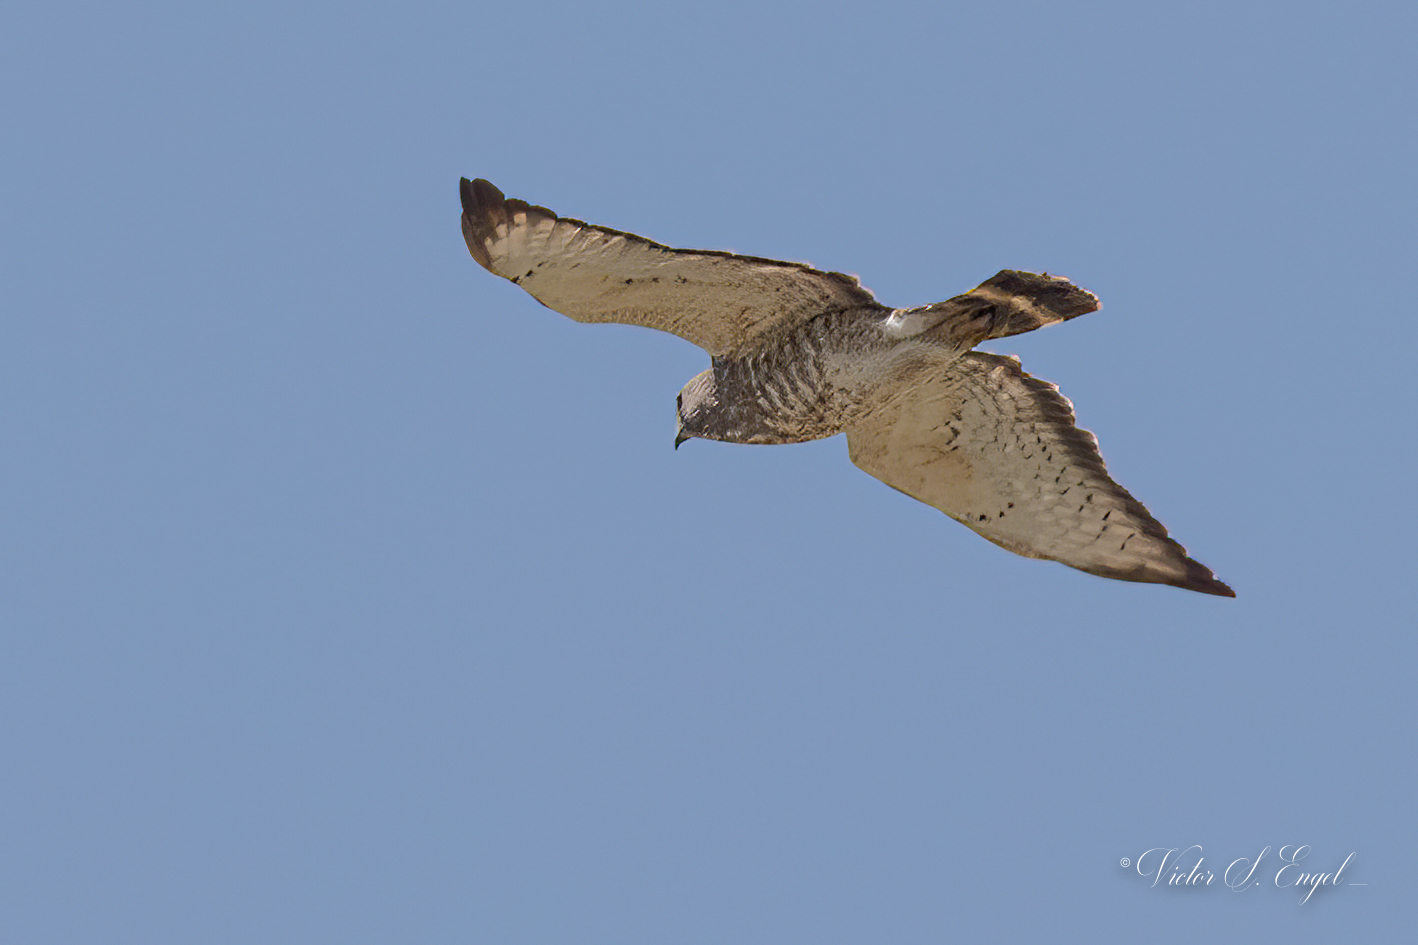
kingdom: Animalia
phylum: Chordata
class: Aves
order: Accipitriformes
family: Accipitridae
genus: Buteo
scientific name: Buteo platypterus
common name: Broad-winged hawk
